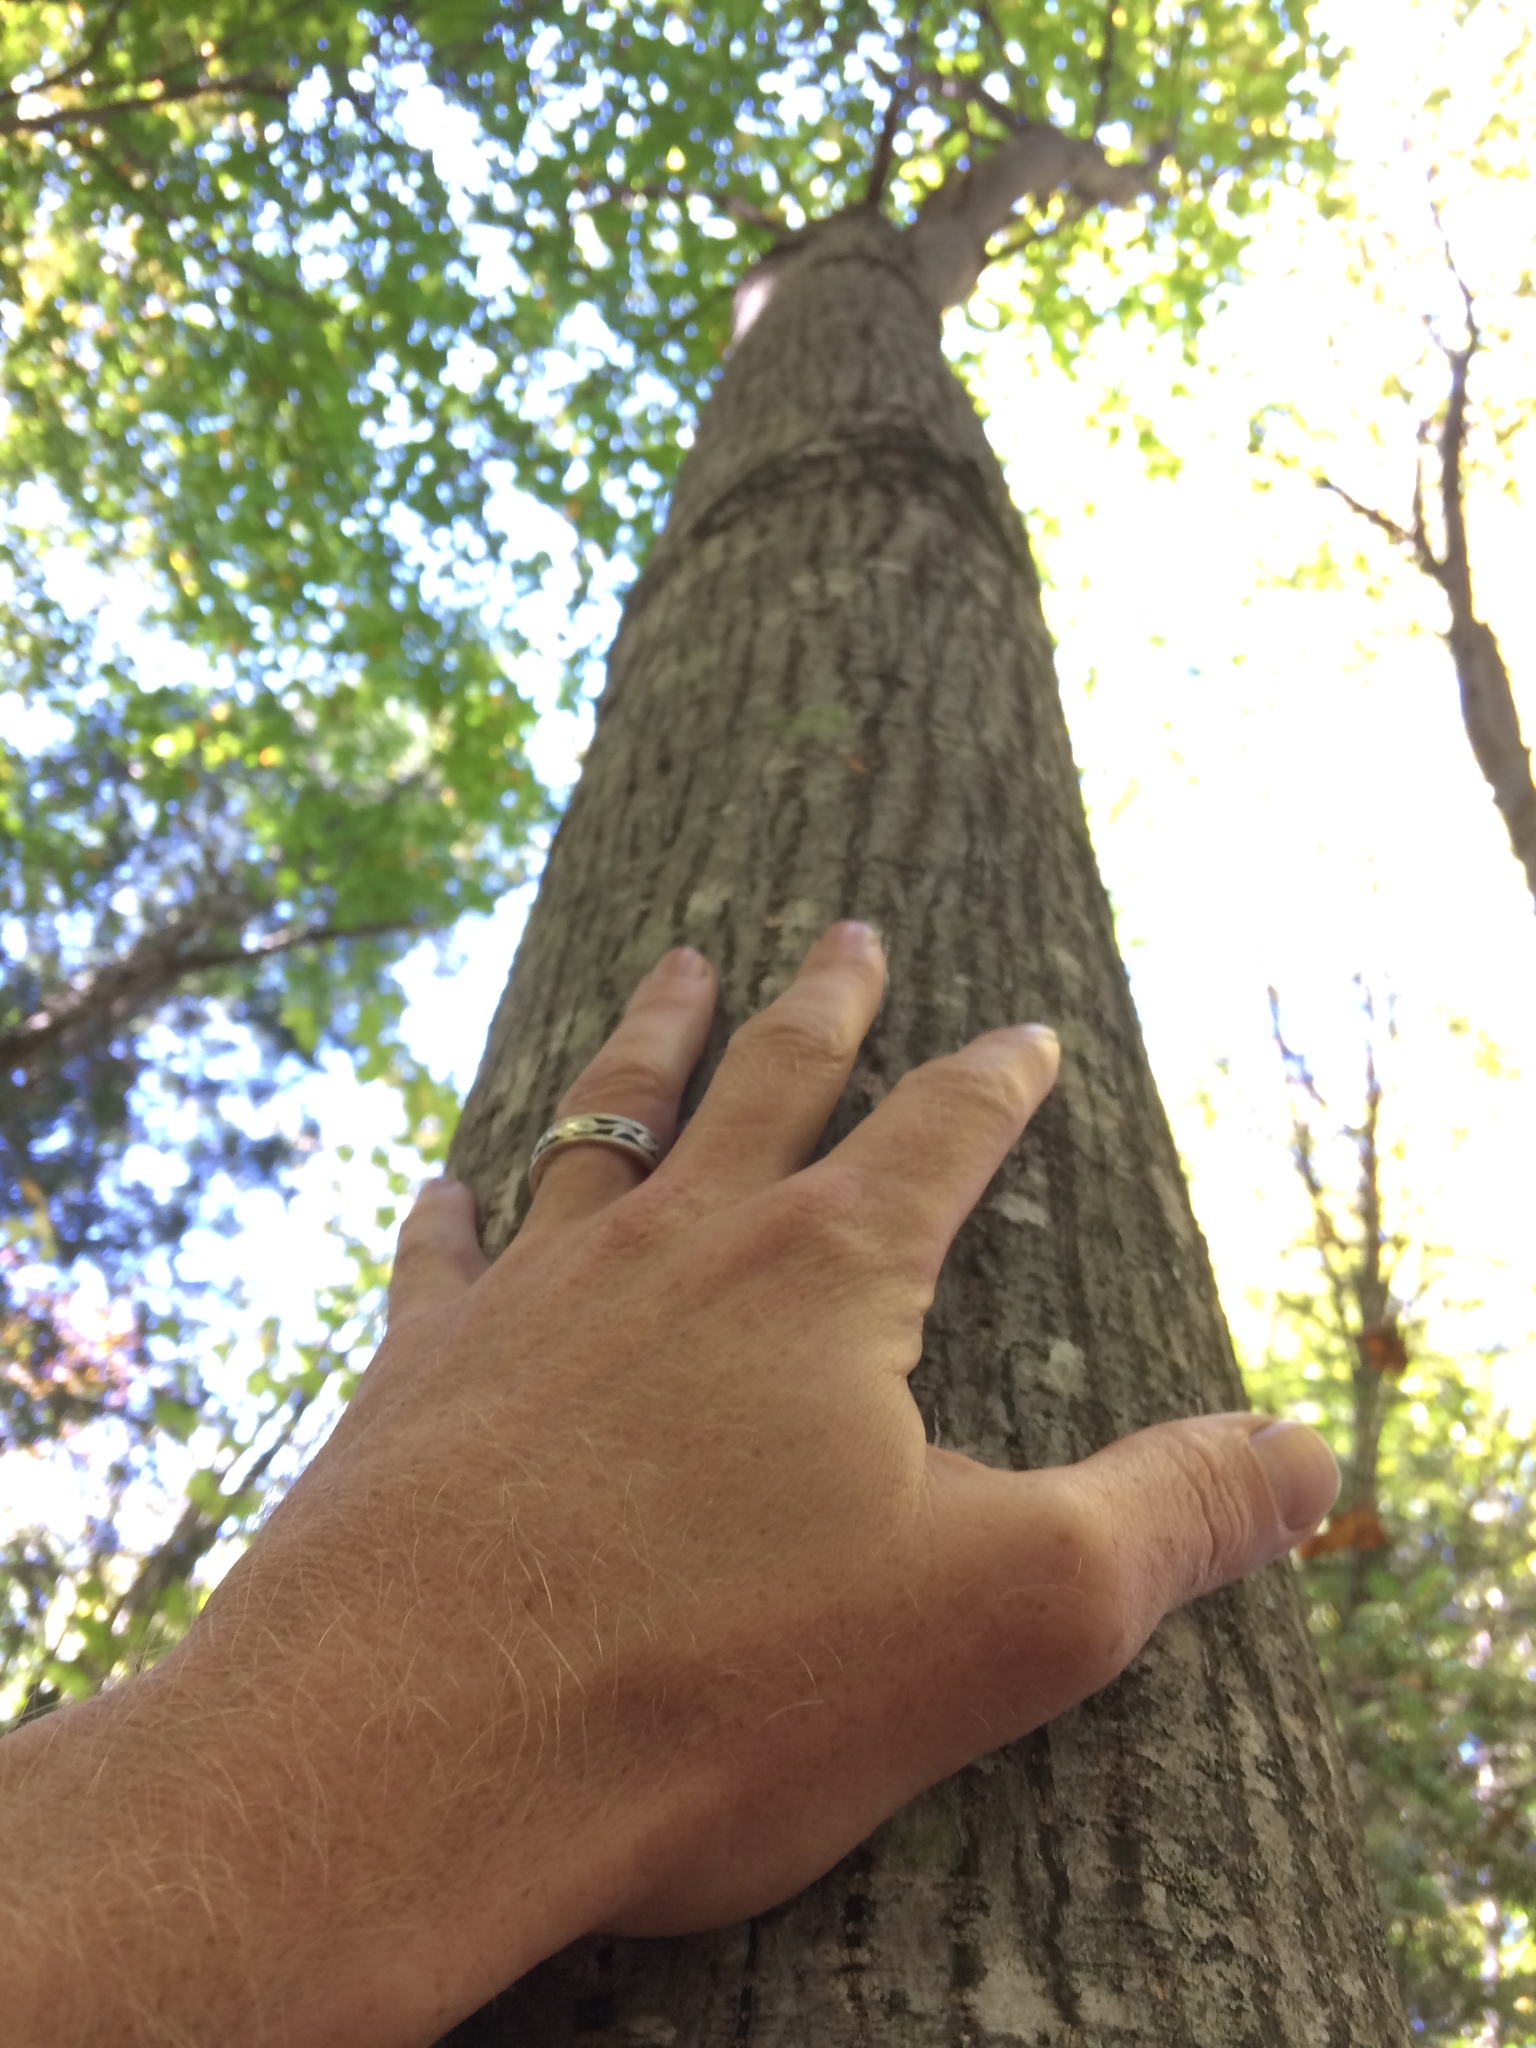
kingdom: Plantae
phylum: Tracheophyta
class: Magnoliopsida
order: Sapindales
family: Sapindaceae
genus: Acer
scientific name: Acer pensylvanicum
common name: Moosewood
